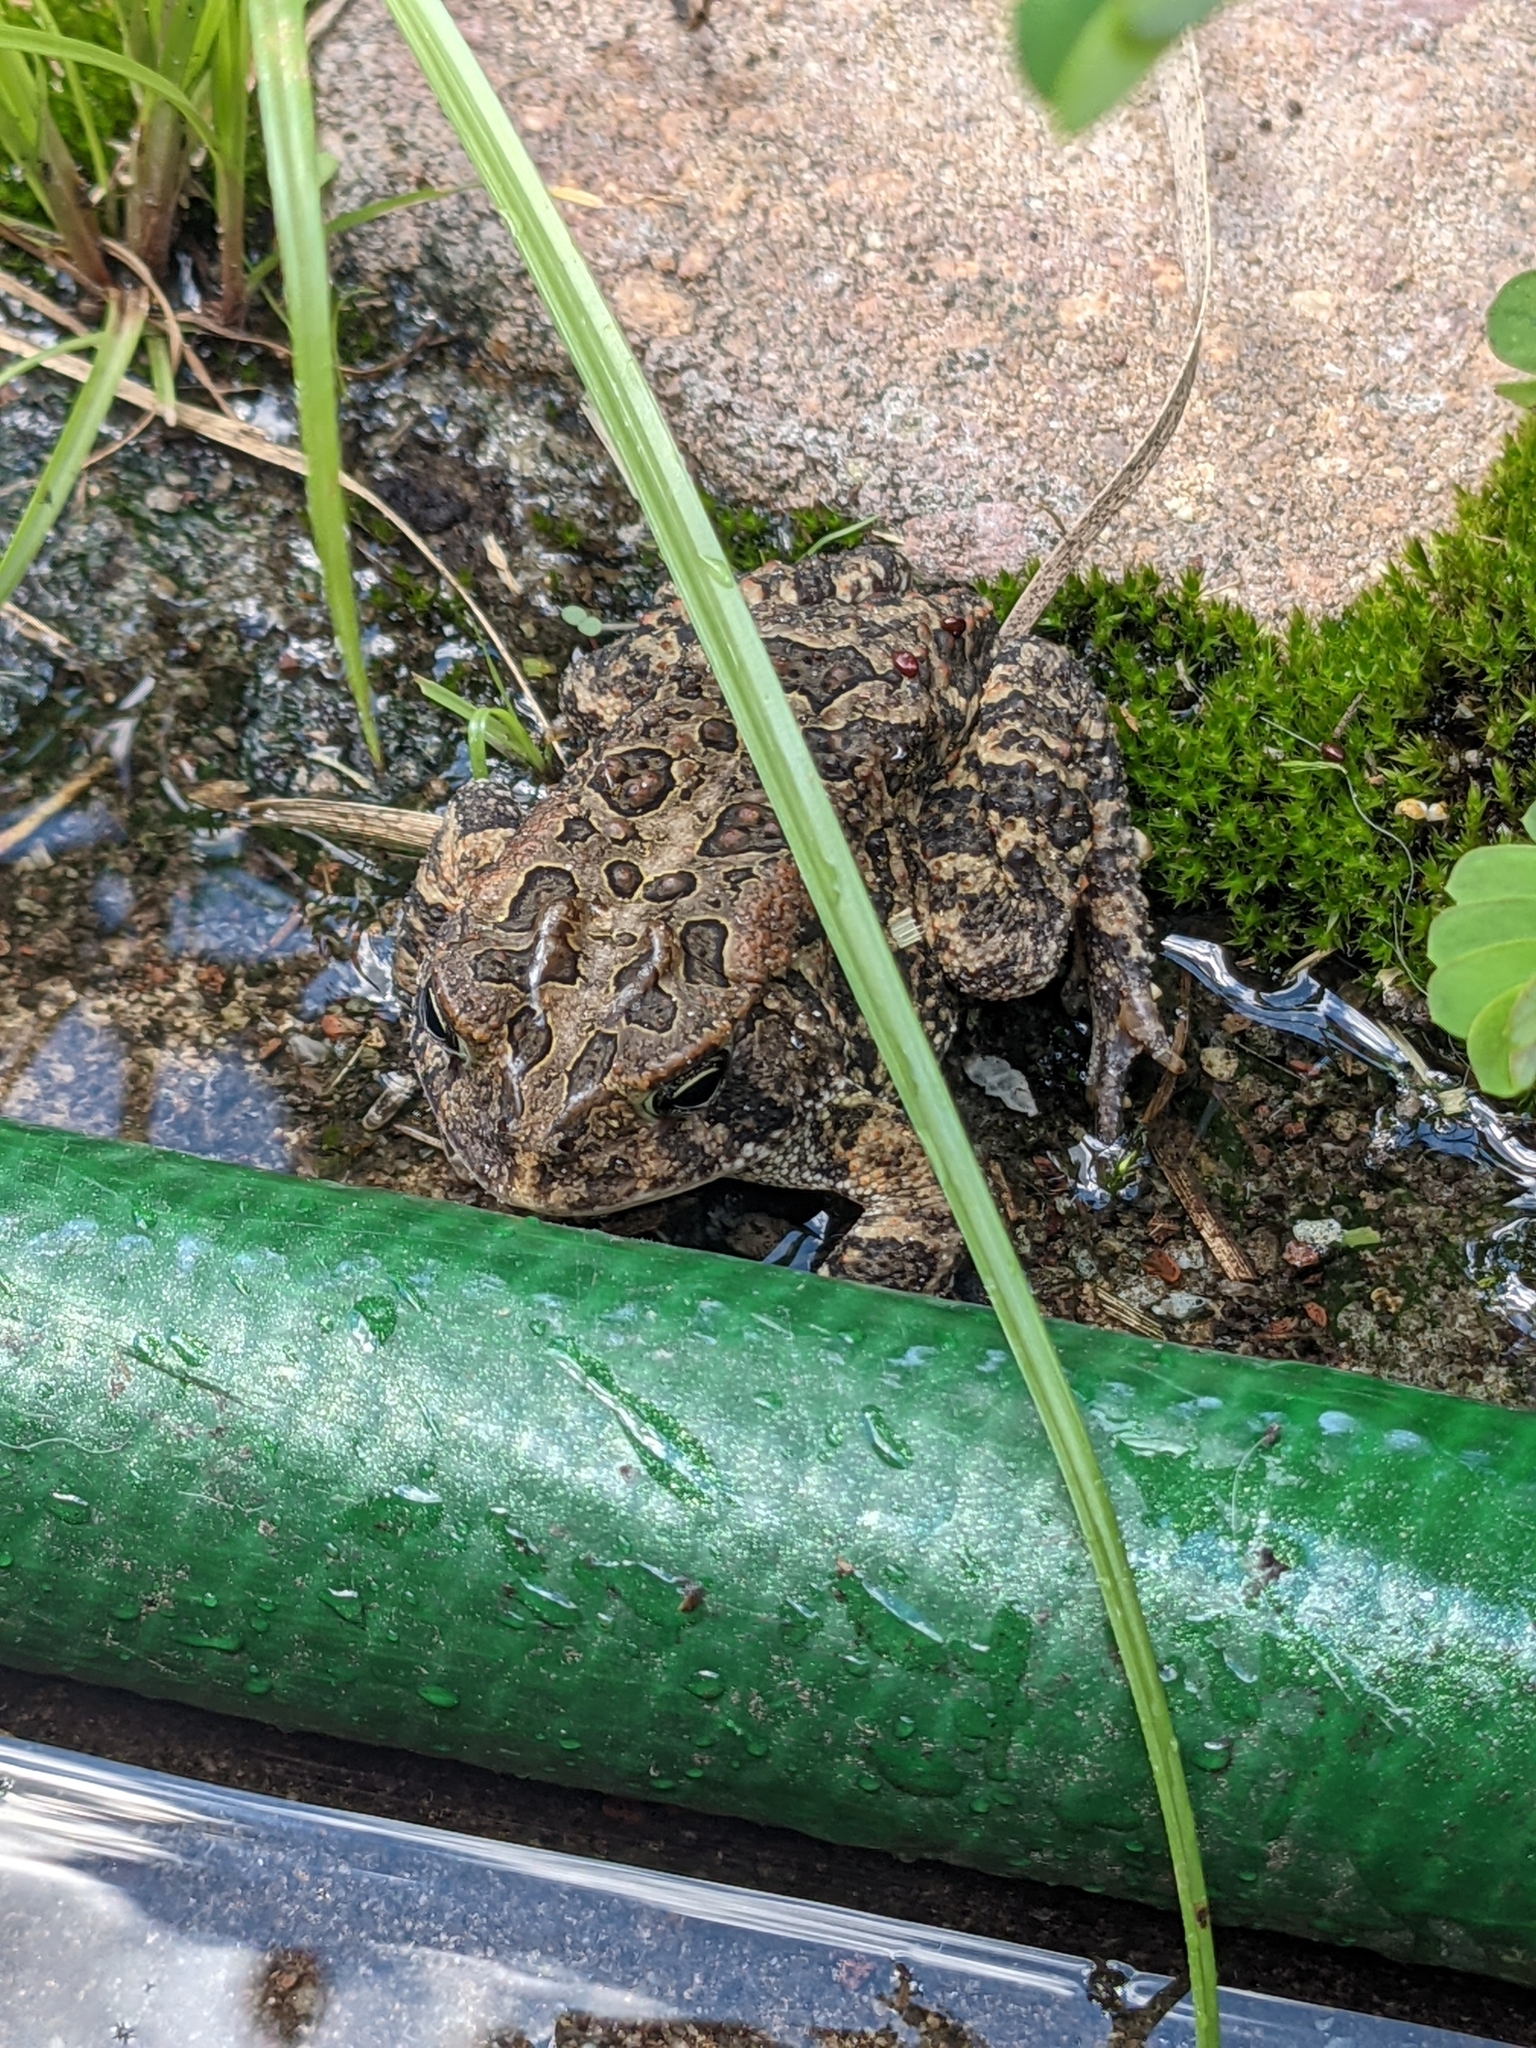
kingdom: Animalia
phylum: Chordata
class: Amphibia
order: Anura
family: Bufonidae
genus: Anaxyrus
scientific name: Anaxyrus terrestris
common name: Southern toad
